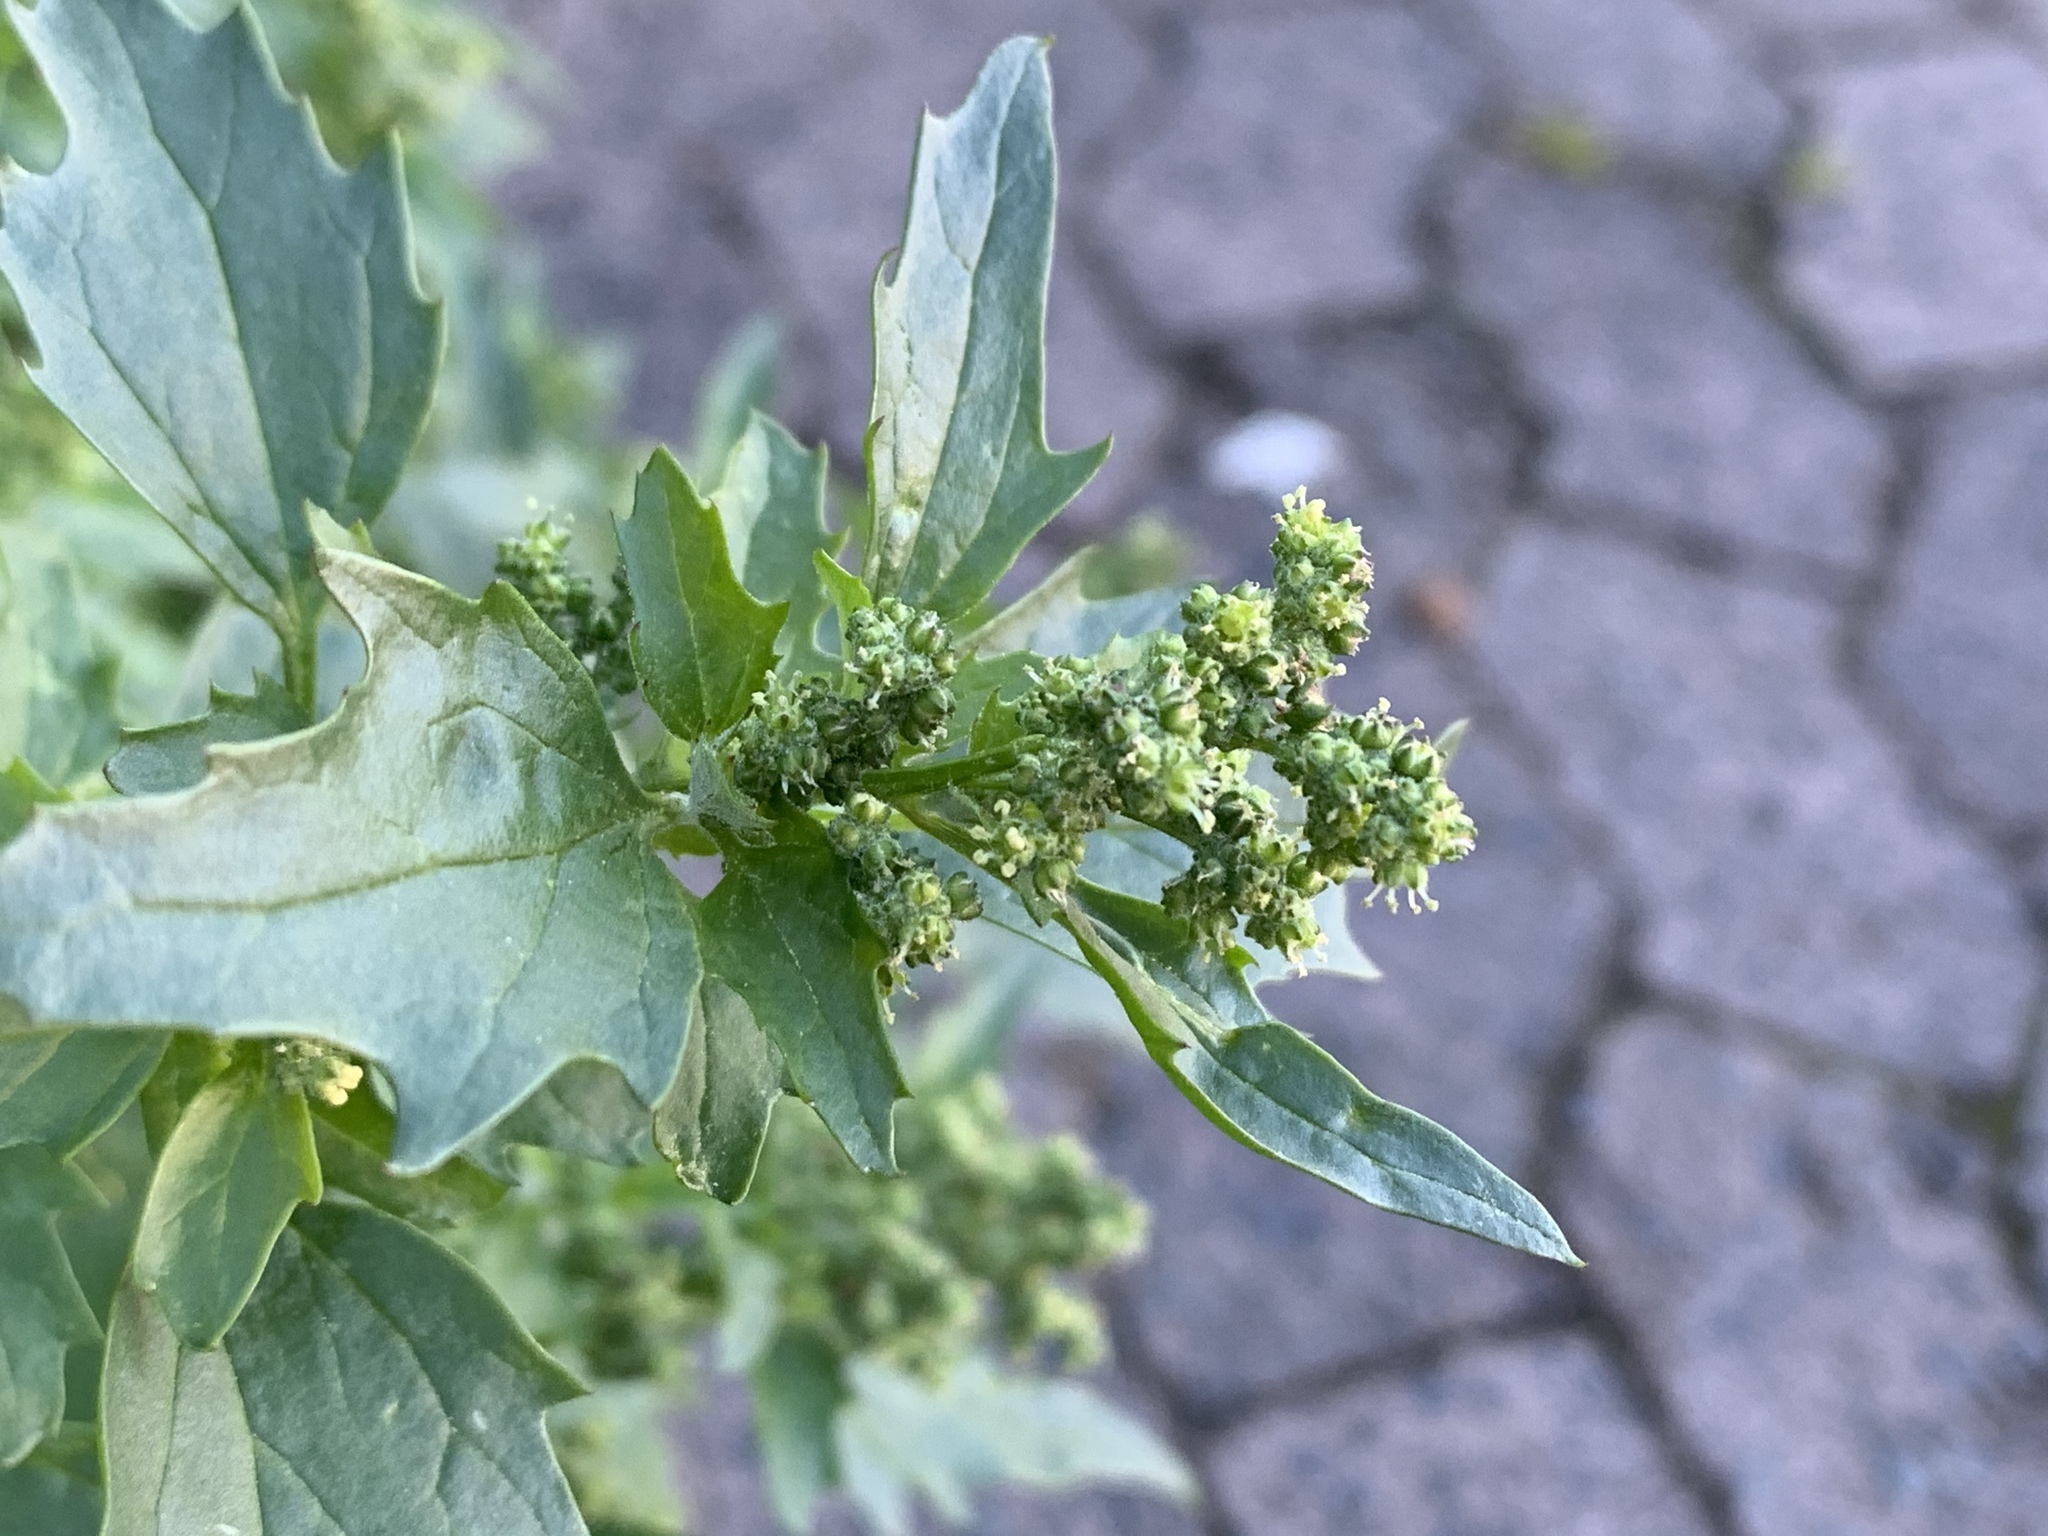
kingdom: Plantae
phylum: Tracheophyta
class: Magnoliopsida
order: Caryophyllales
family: Amaranthaceae
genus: Chenopodiastrum
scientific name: Chenopodiastrum murale
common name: Sowbane
